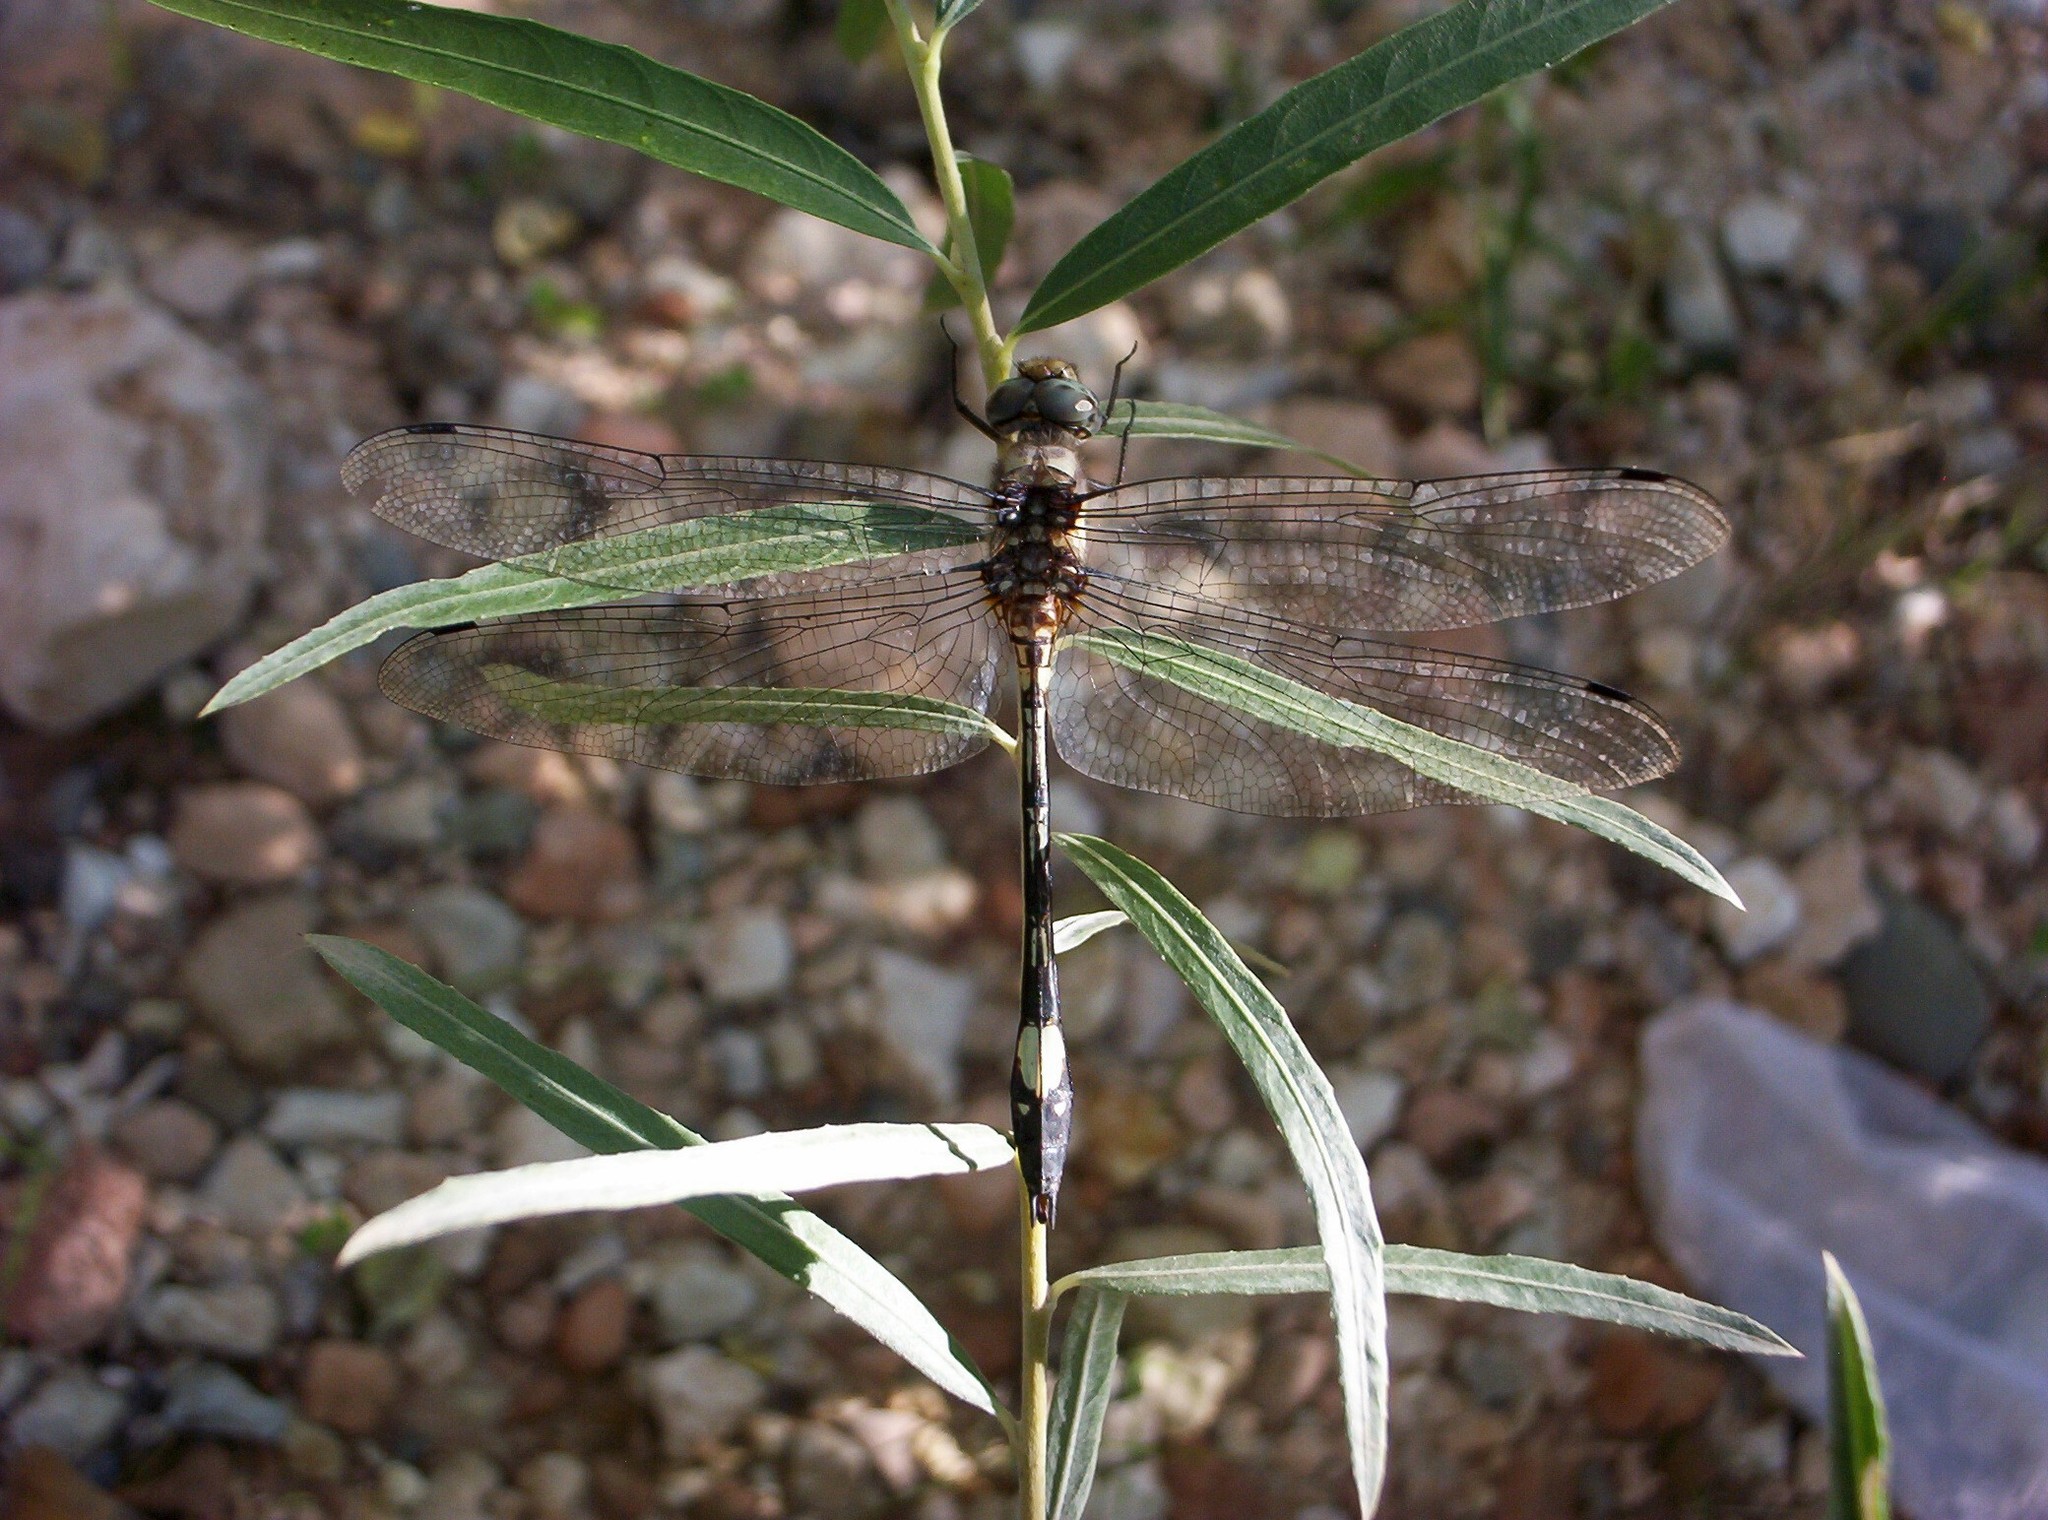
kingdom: Animalia
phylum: Arthropoda
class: Insecta
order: Odonata
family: Libellulidae
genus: Brechmorhoga
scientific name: Brechmorhoga mendax
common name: Pale-faced clubskimmer
